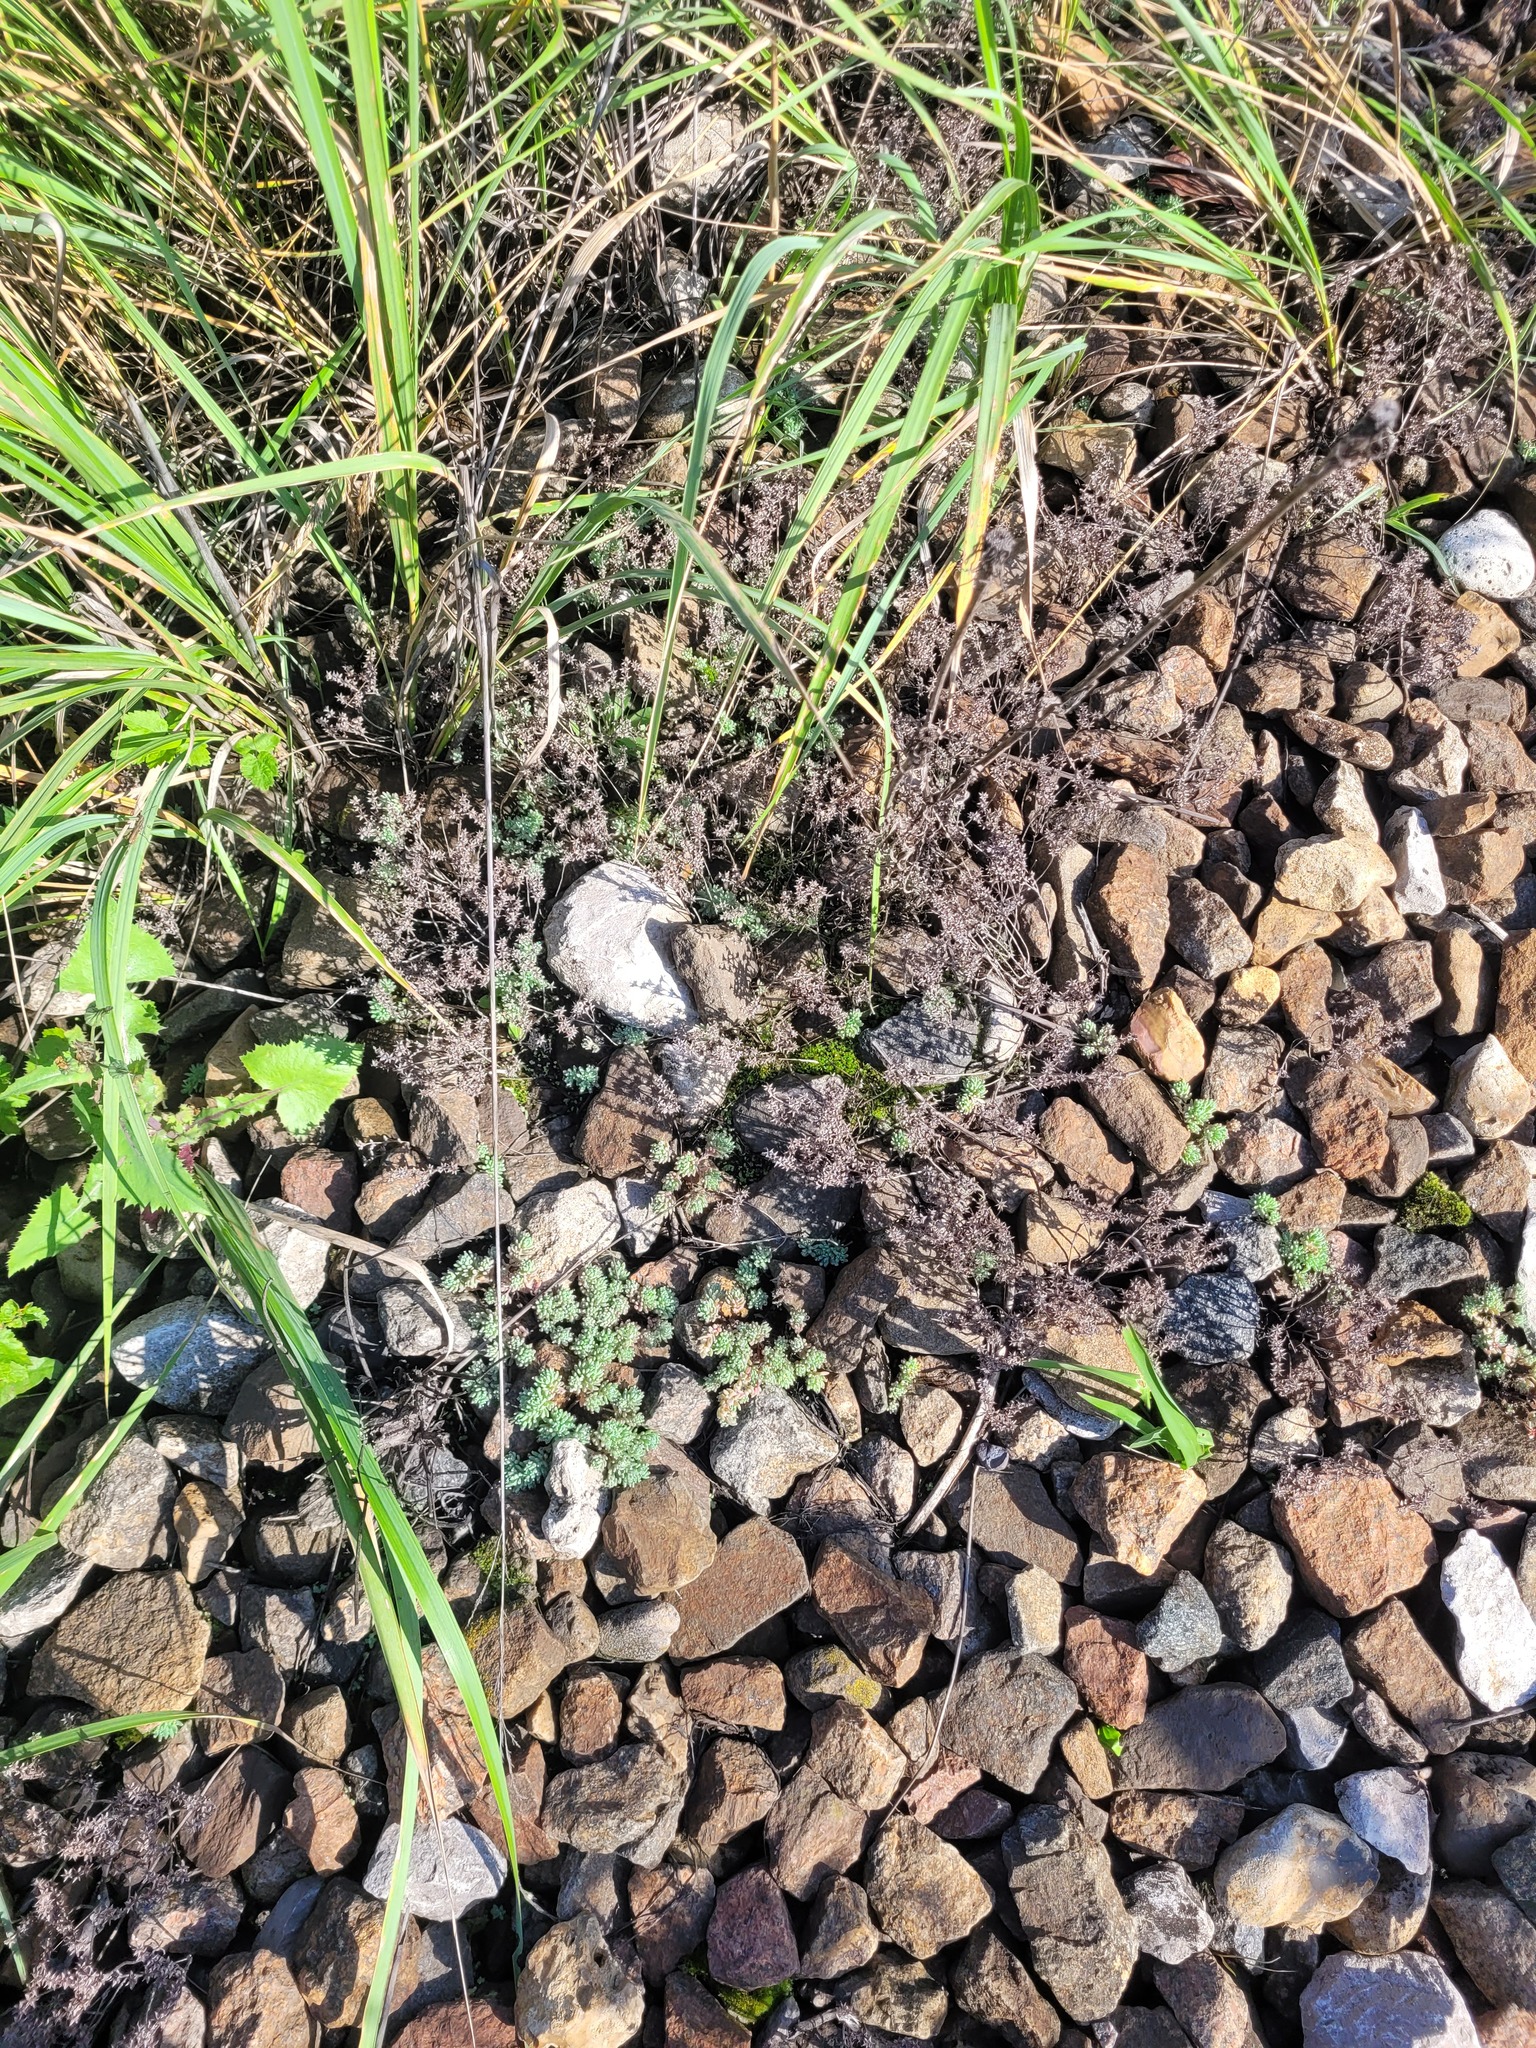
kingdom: Plantae
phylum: Tracheophyta
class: Magnoliopsida
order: Saxifragales
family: Crassulaceae
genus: Sedum
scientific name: Sedum hispanicum
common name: Spanish stonecrop
